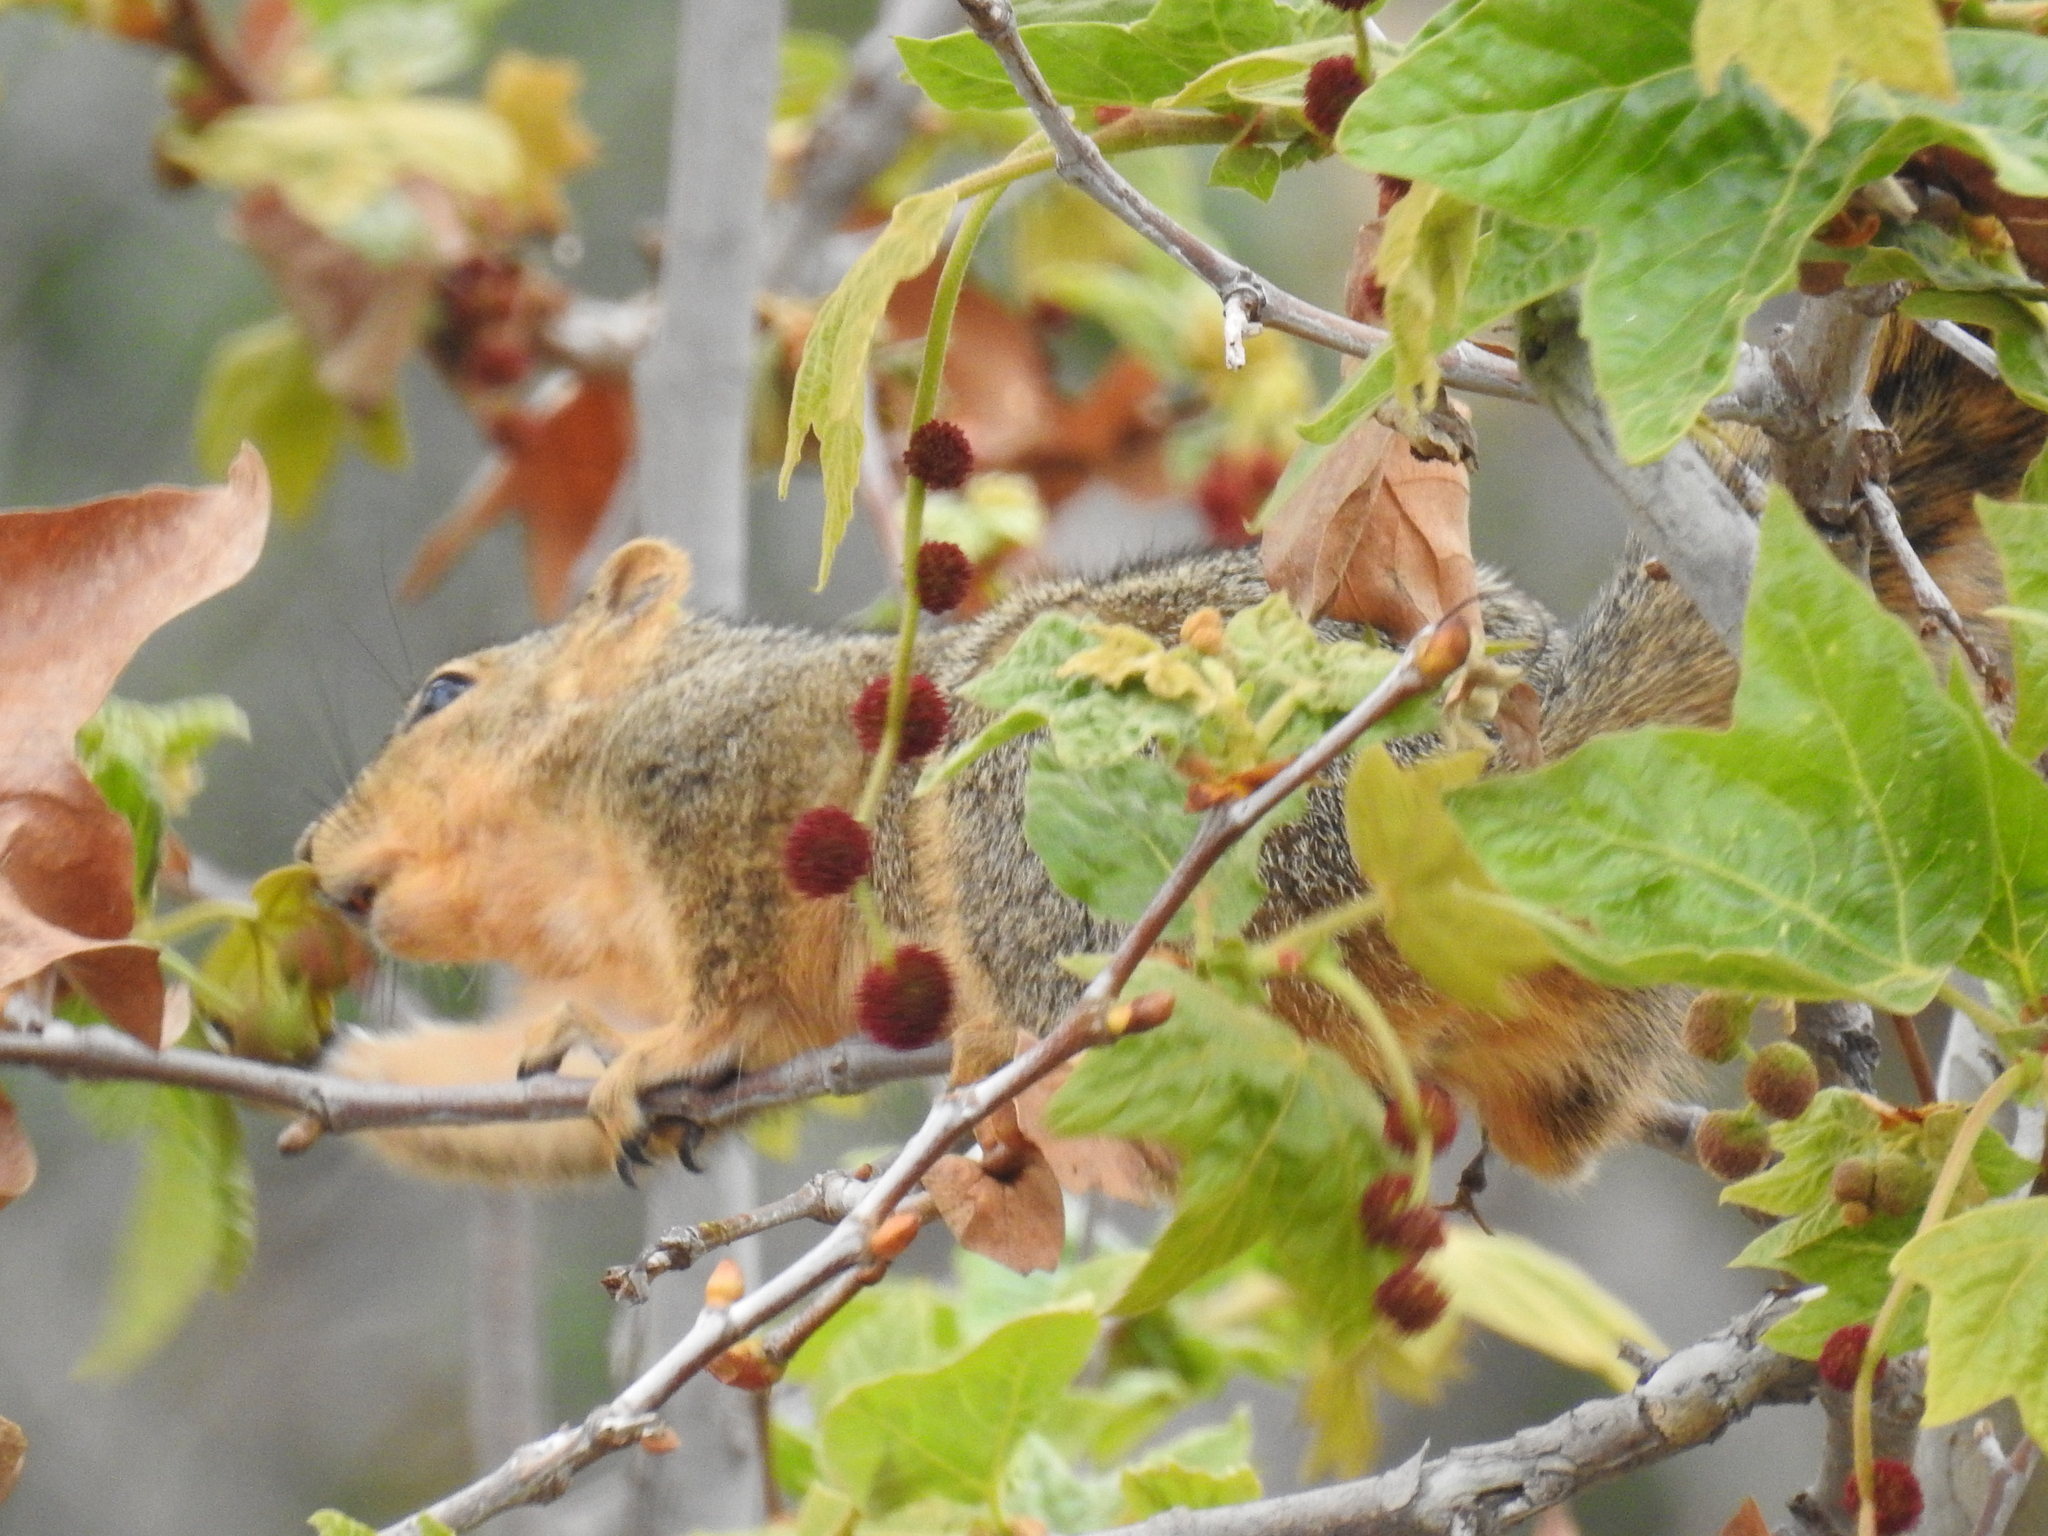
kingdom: Animalia
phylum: Chordata
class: Mammalia
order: Rodentia
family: Sciuridae
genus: Sciurus
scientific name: Sciurus niger
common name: Fox squirrel
